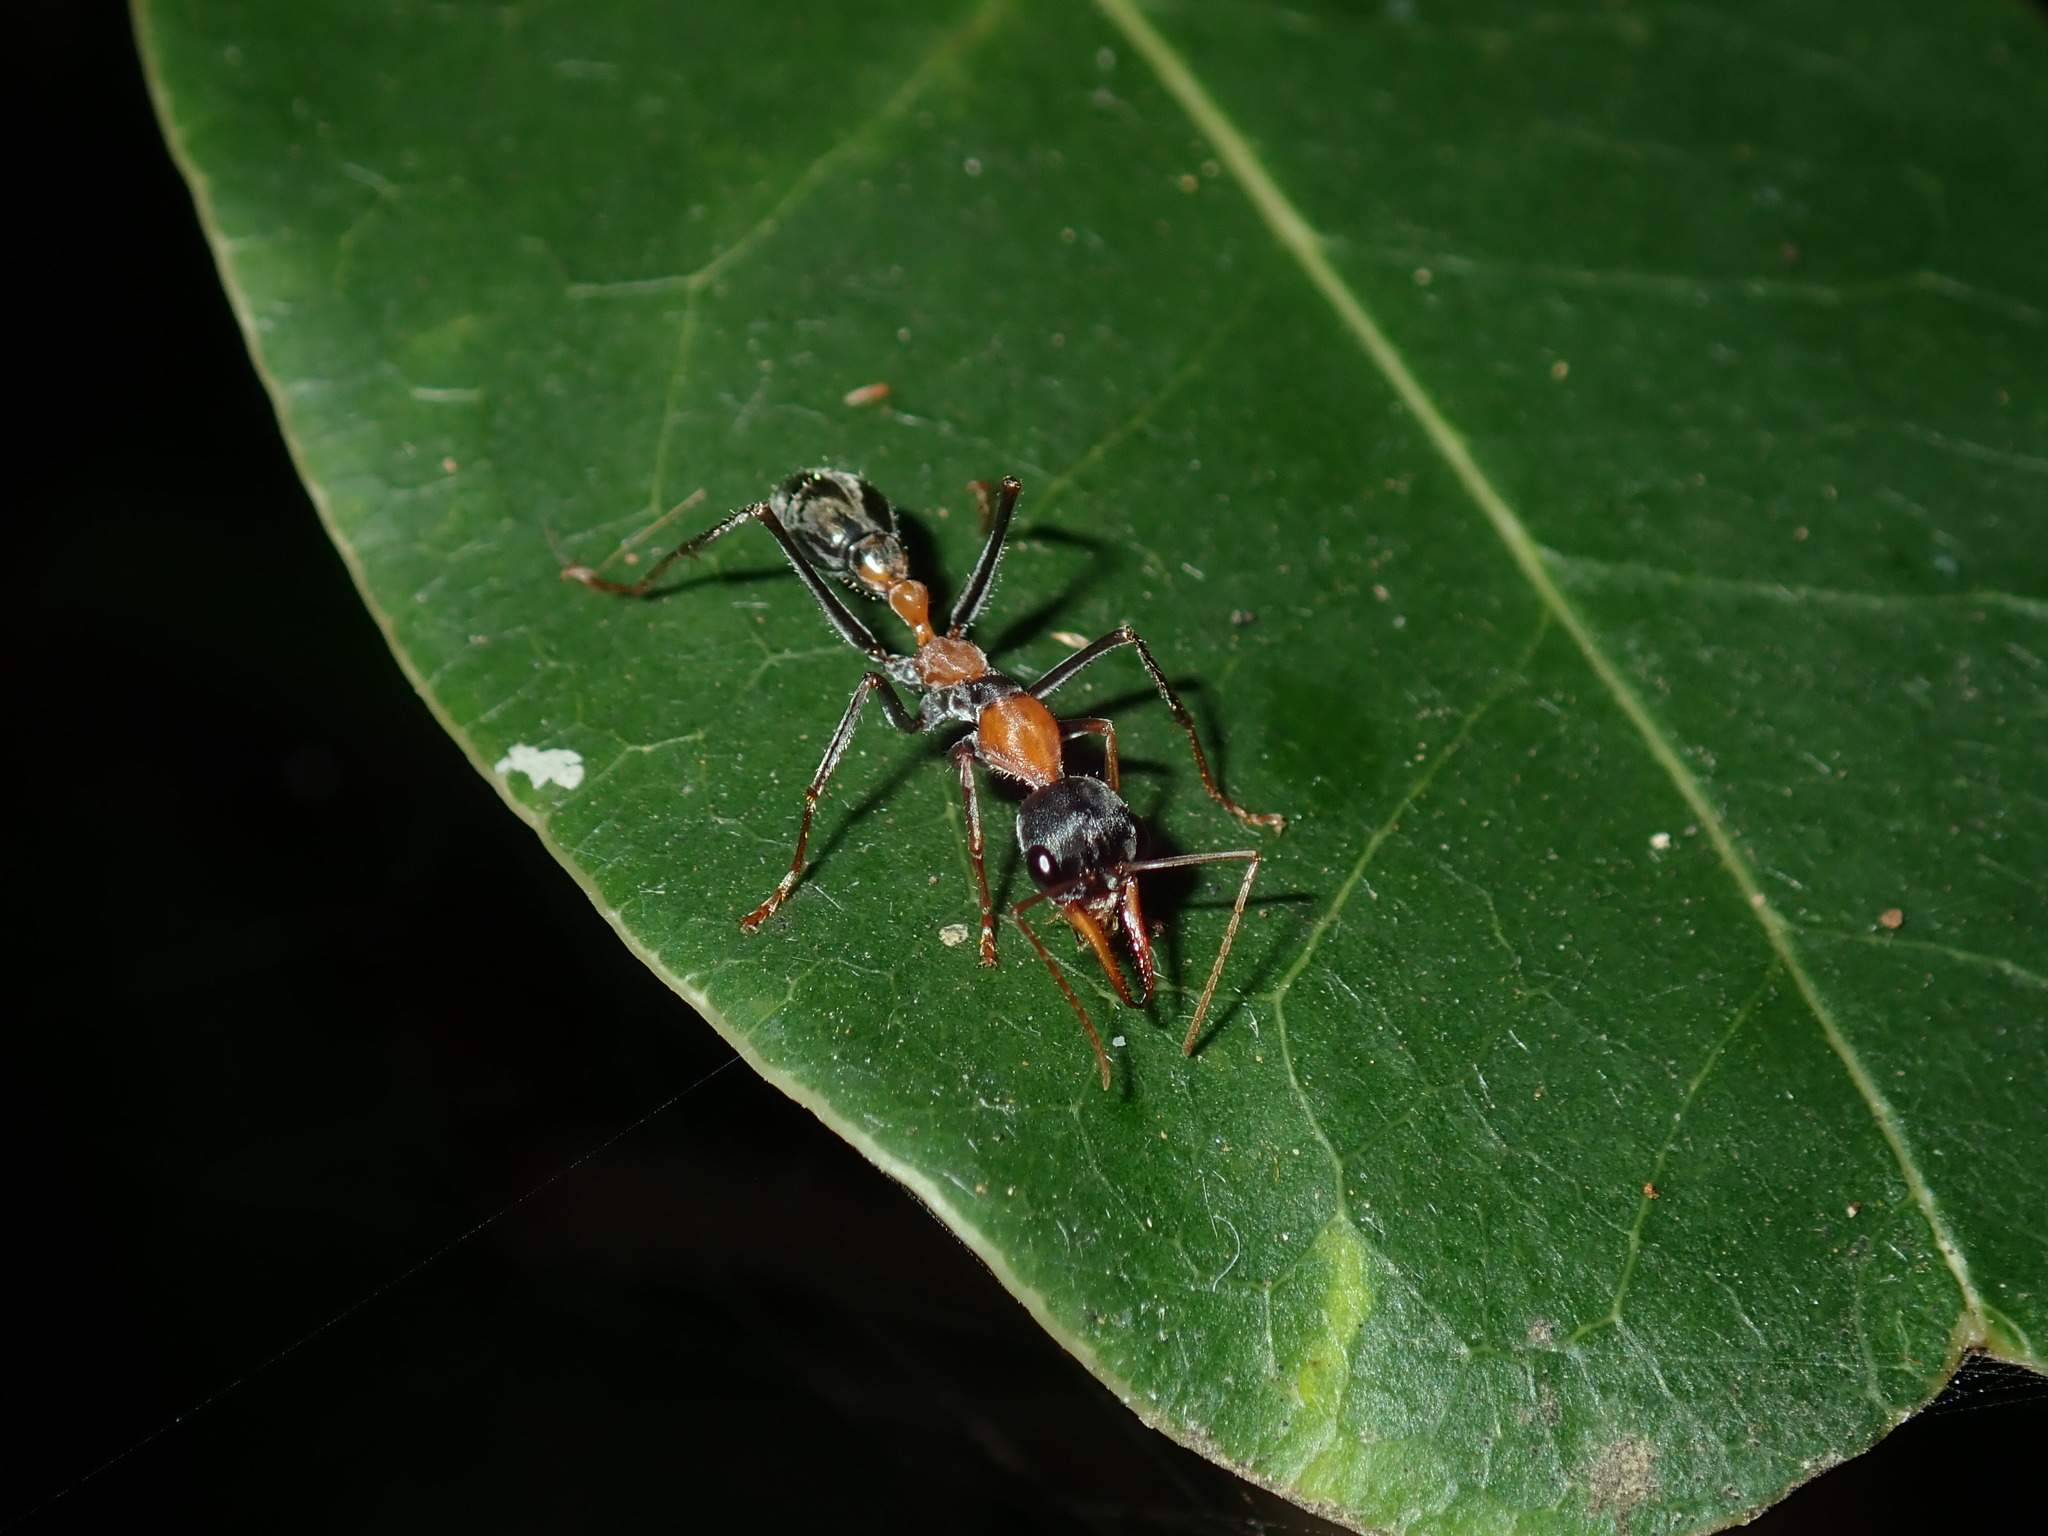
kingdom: Animalia
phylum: Arthropoda
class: Insecta
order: Hymenoptera
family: Formicidae
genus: Myrmecia
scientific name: Myrmecia nigrocincta
